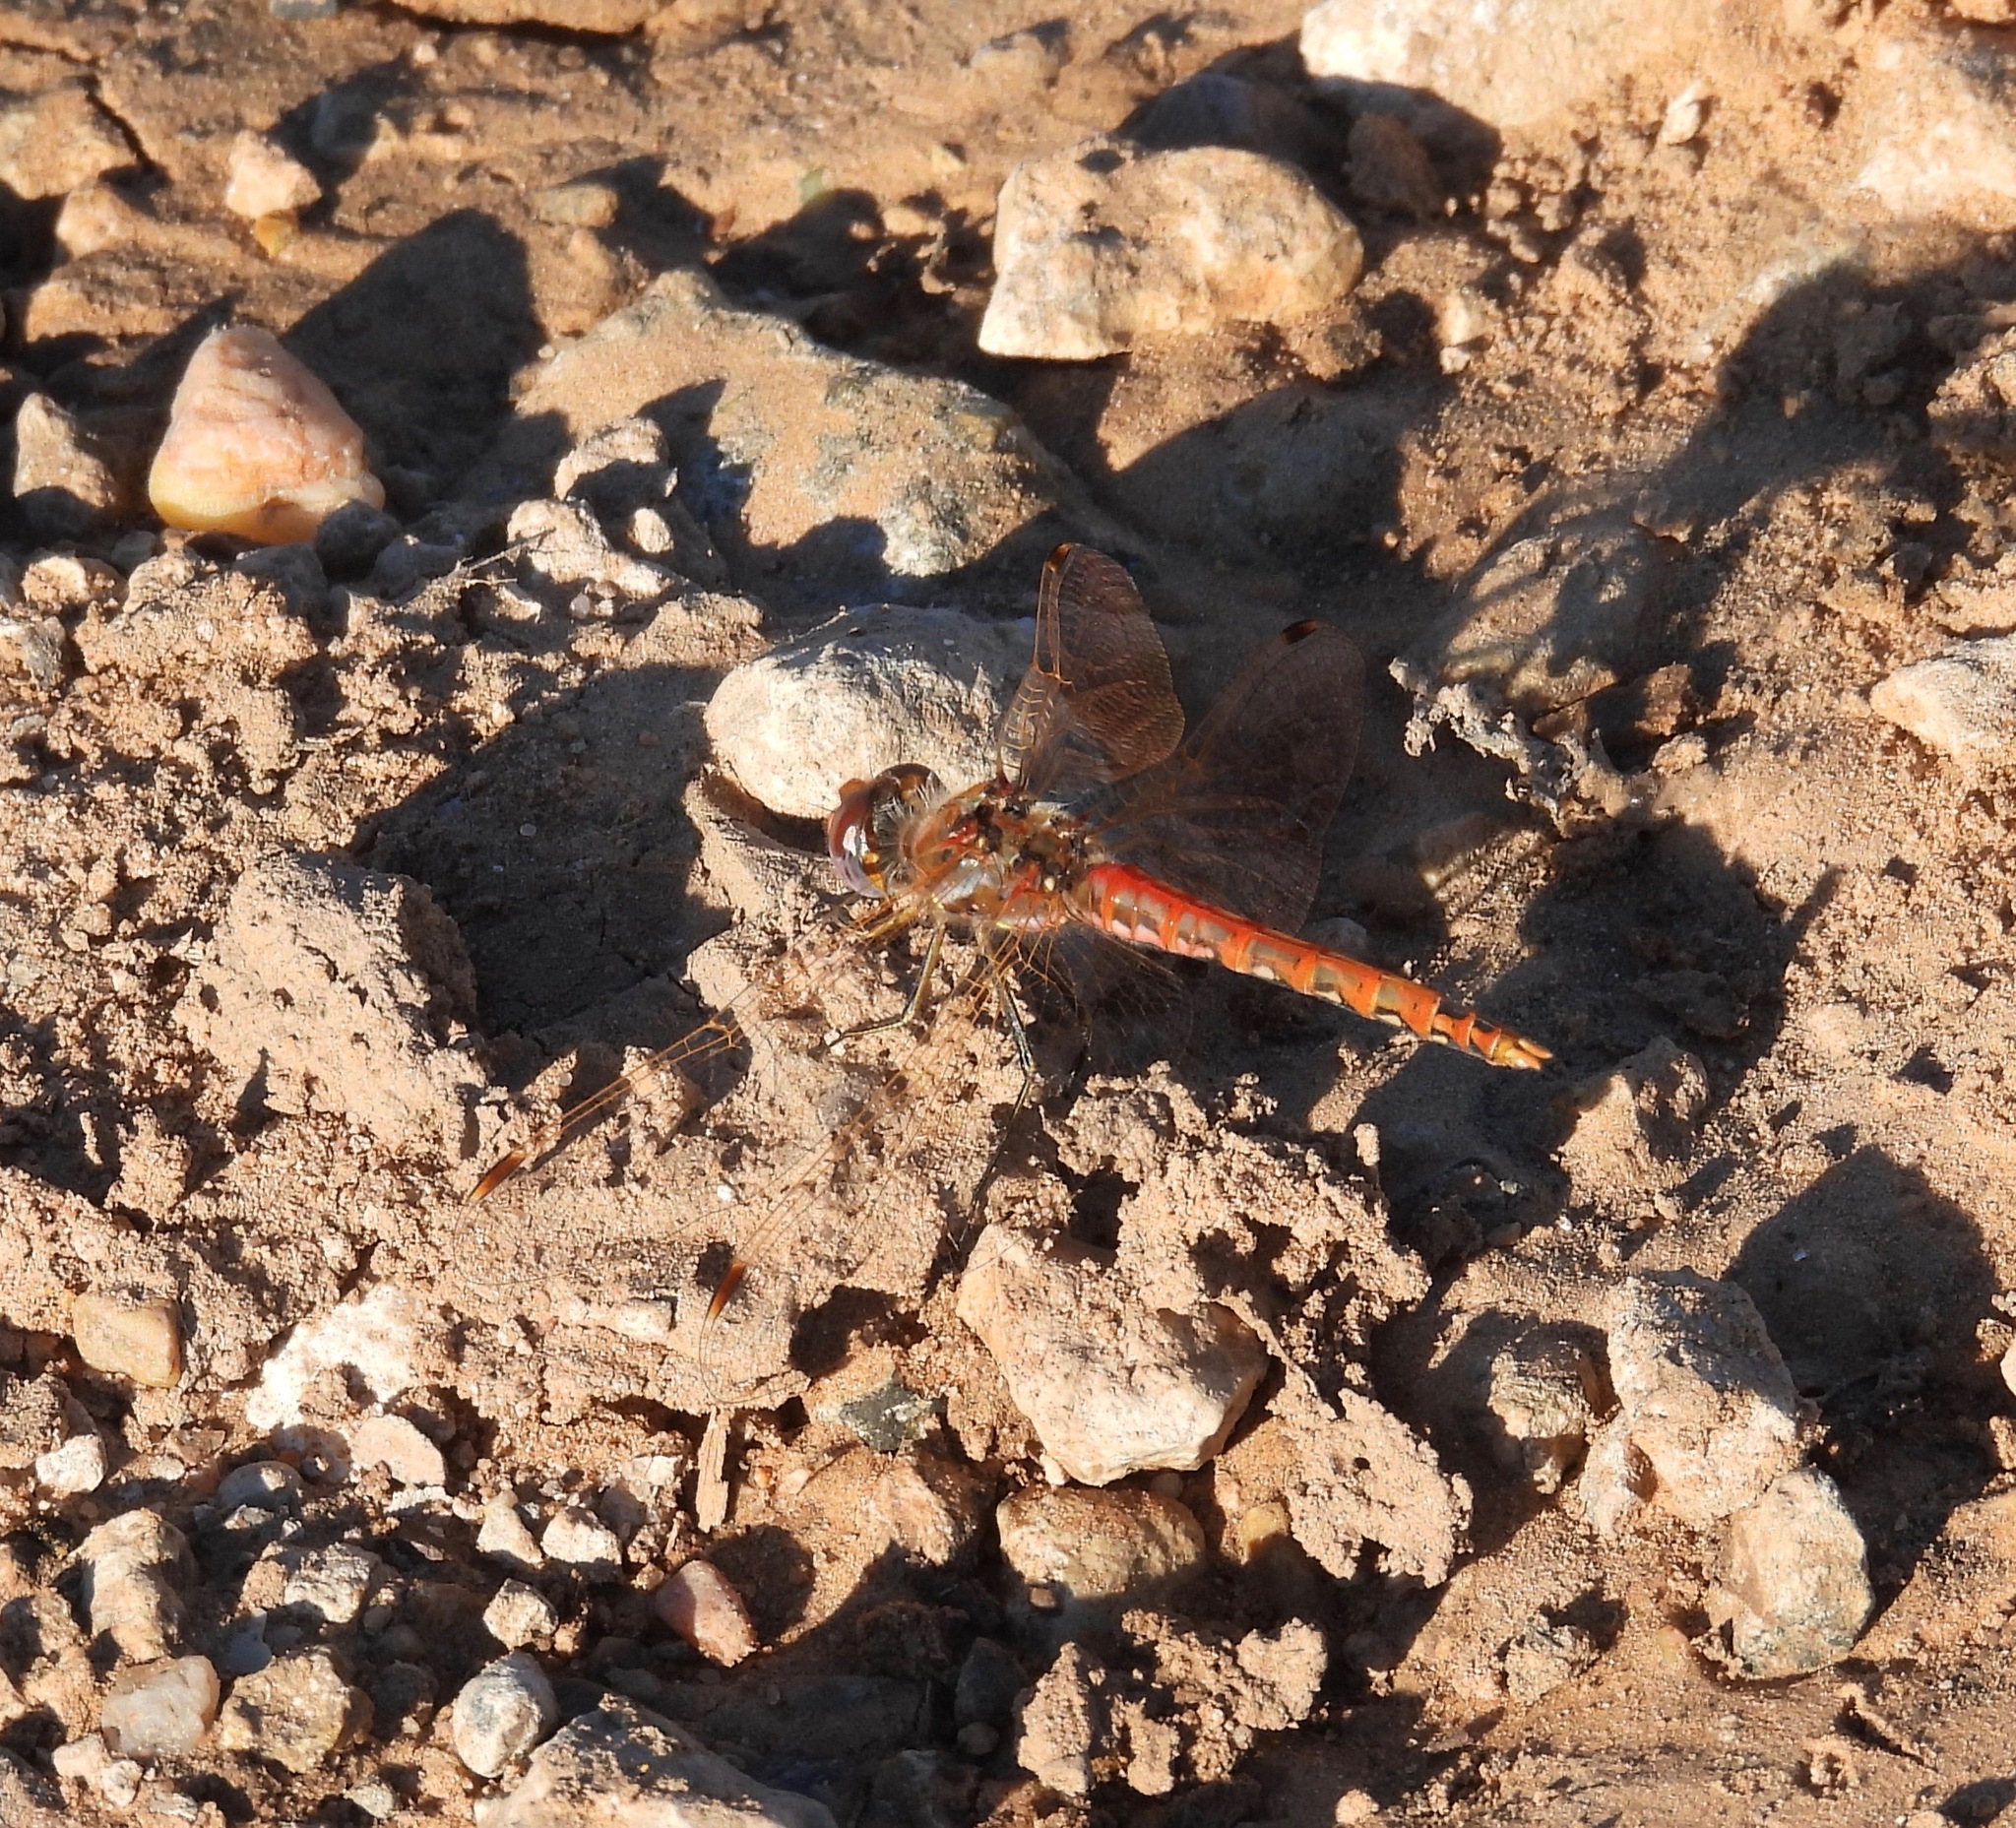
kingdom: Animalia
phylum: Arthropoda
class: Insecta
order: Odonata
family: Libellulidae
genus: Sympetrum
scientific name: Sympetrum corruptum
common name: Variegated meadowhawk
